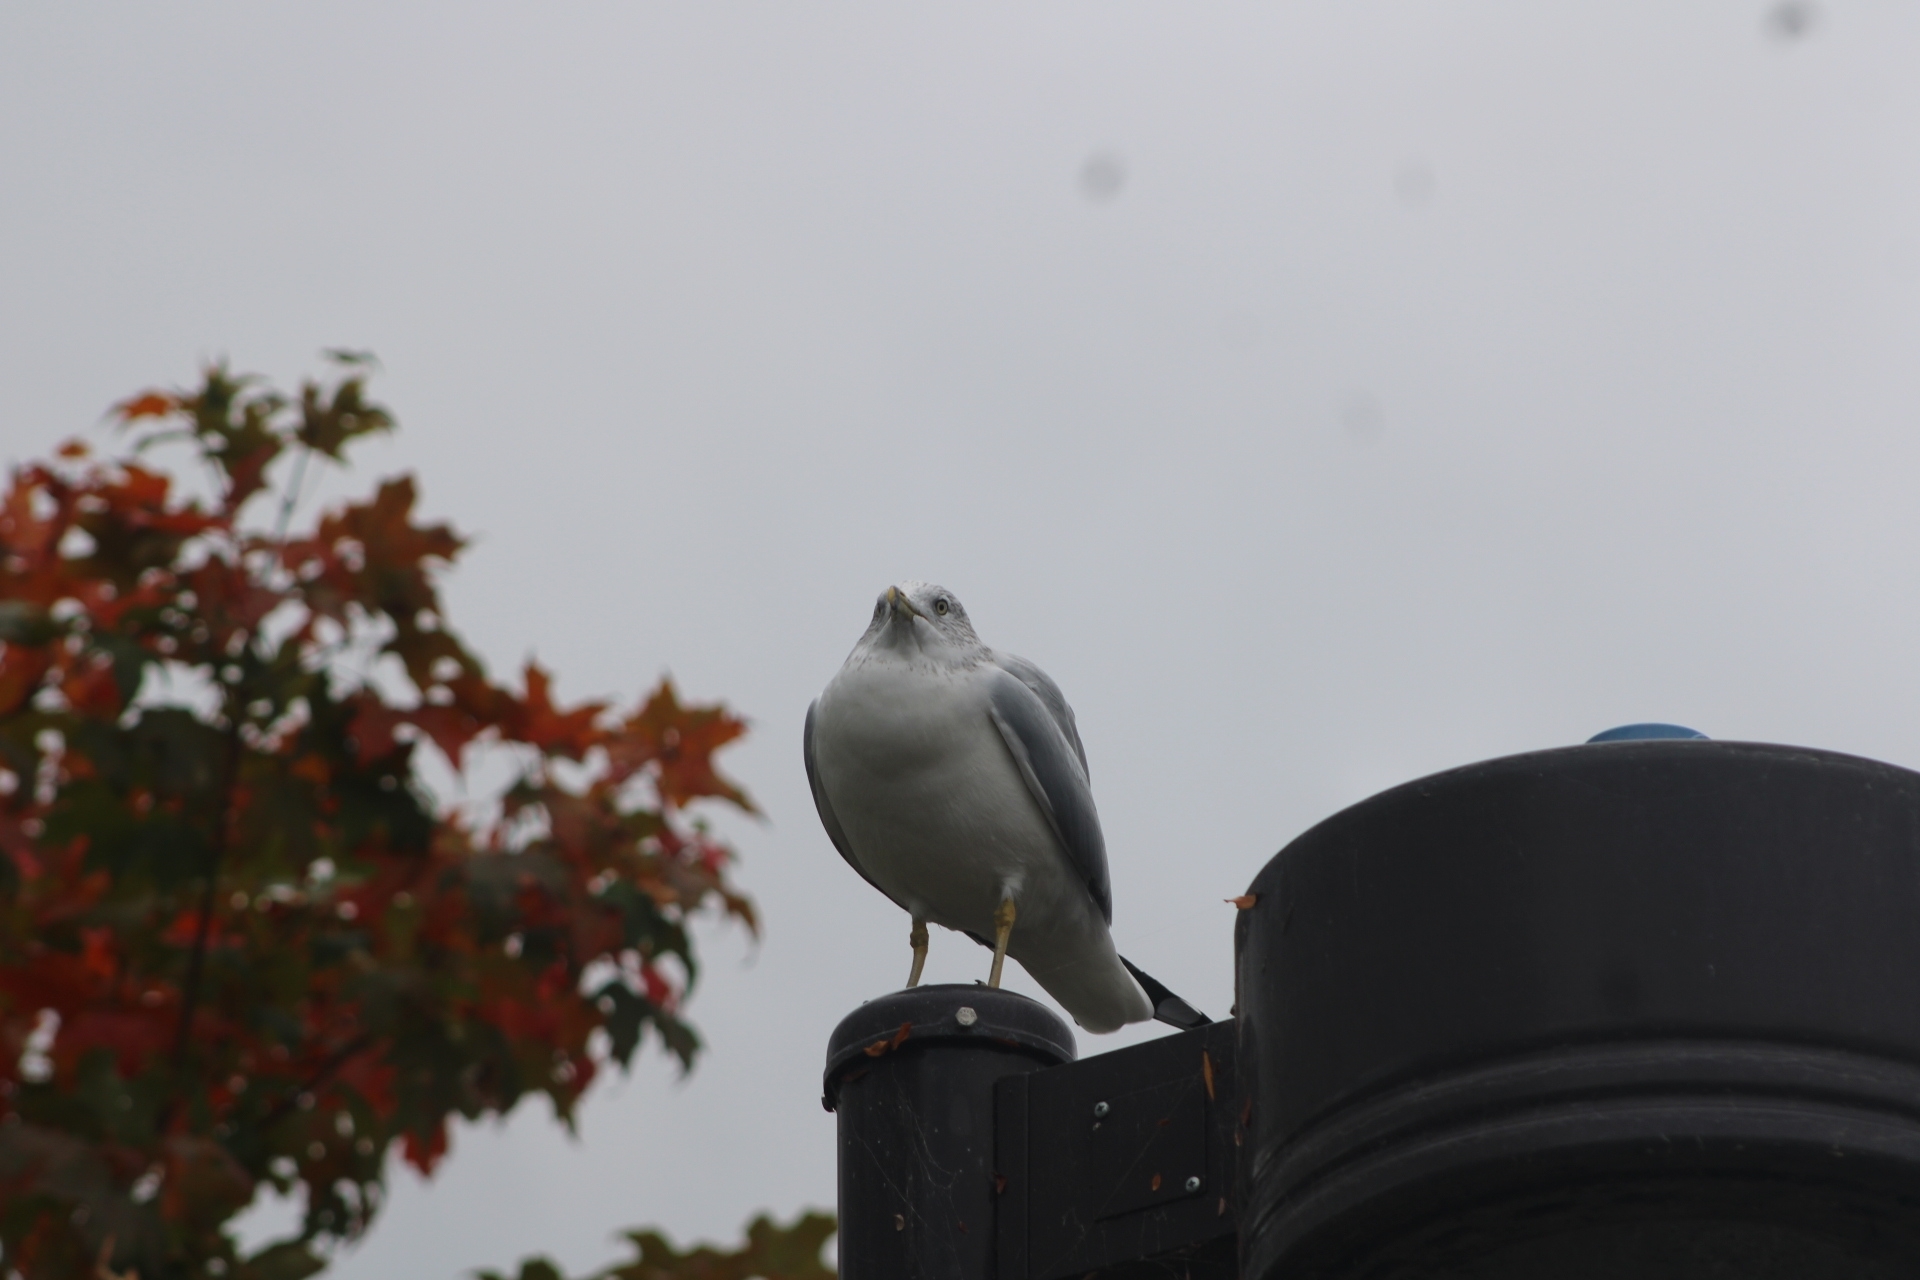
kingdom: Animalia
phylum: Chordata
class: Aves
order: Charadriiformes
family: Laridae
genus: Larus
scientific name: Larus delawarensis
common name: Ring-billed gull
